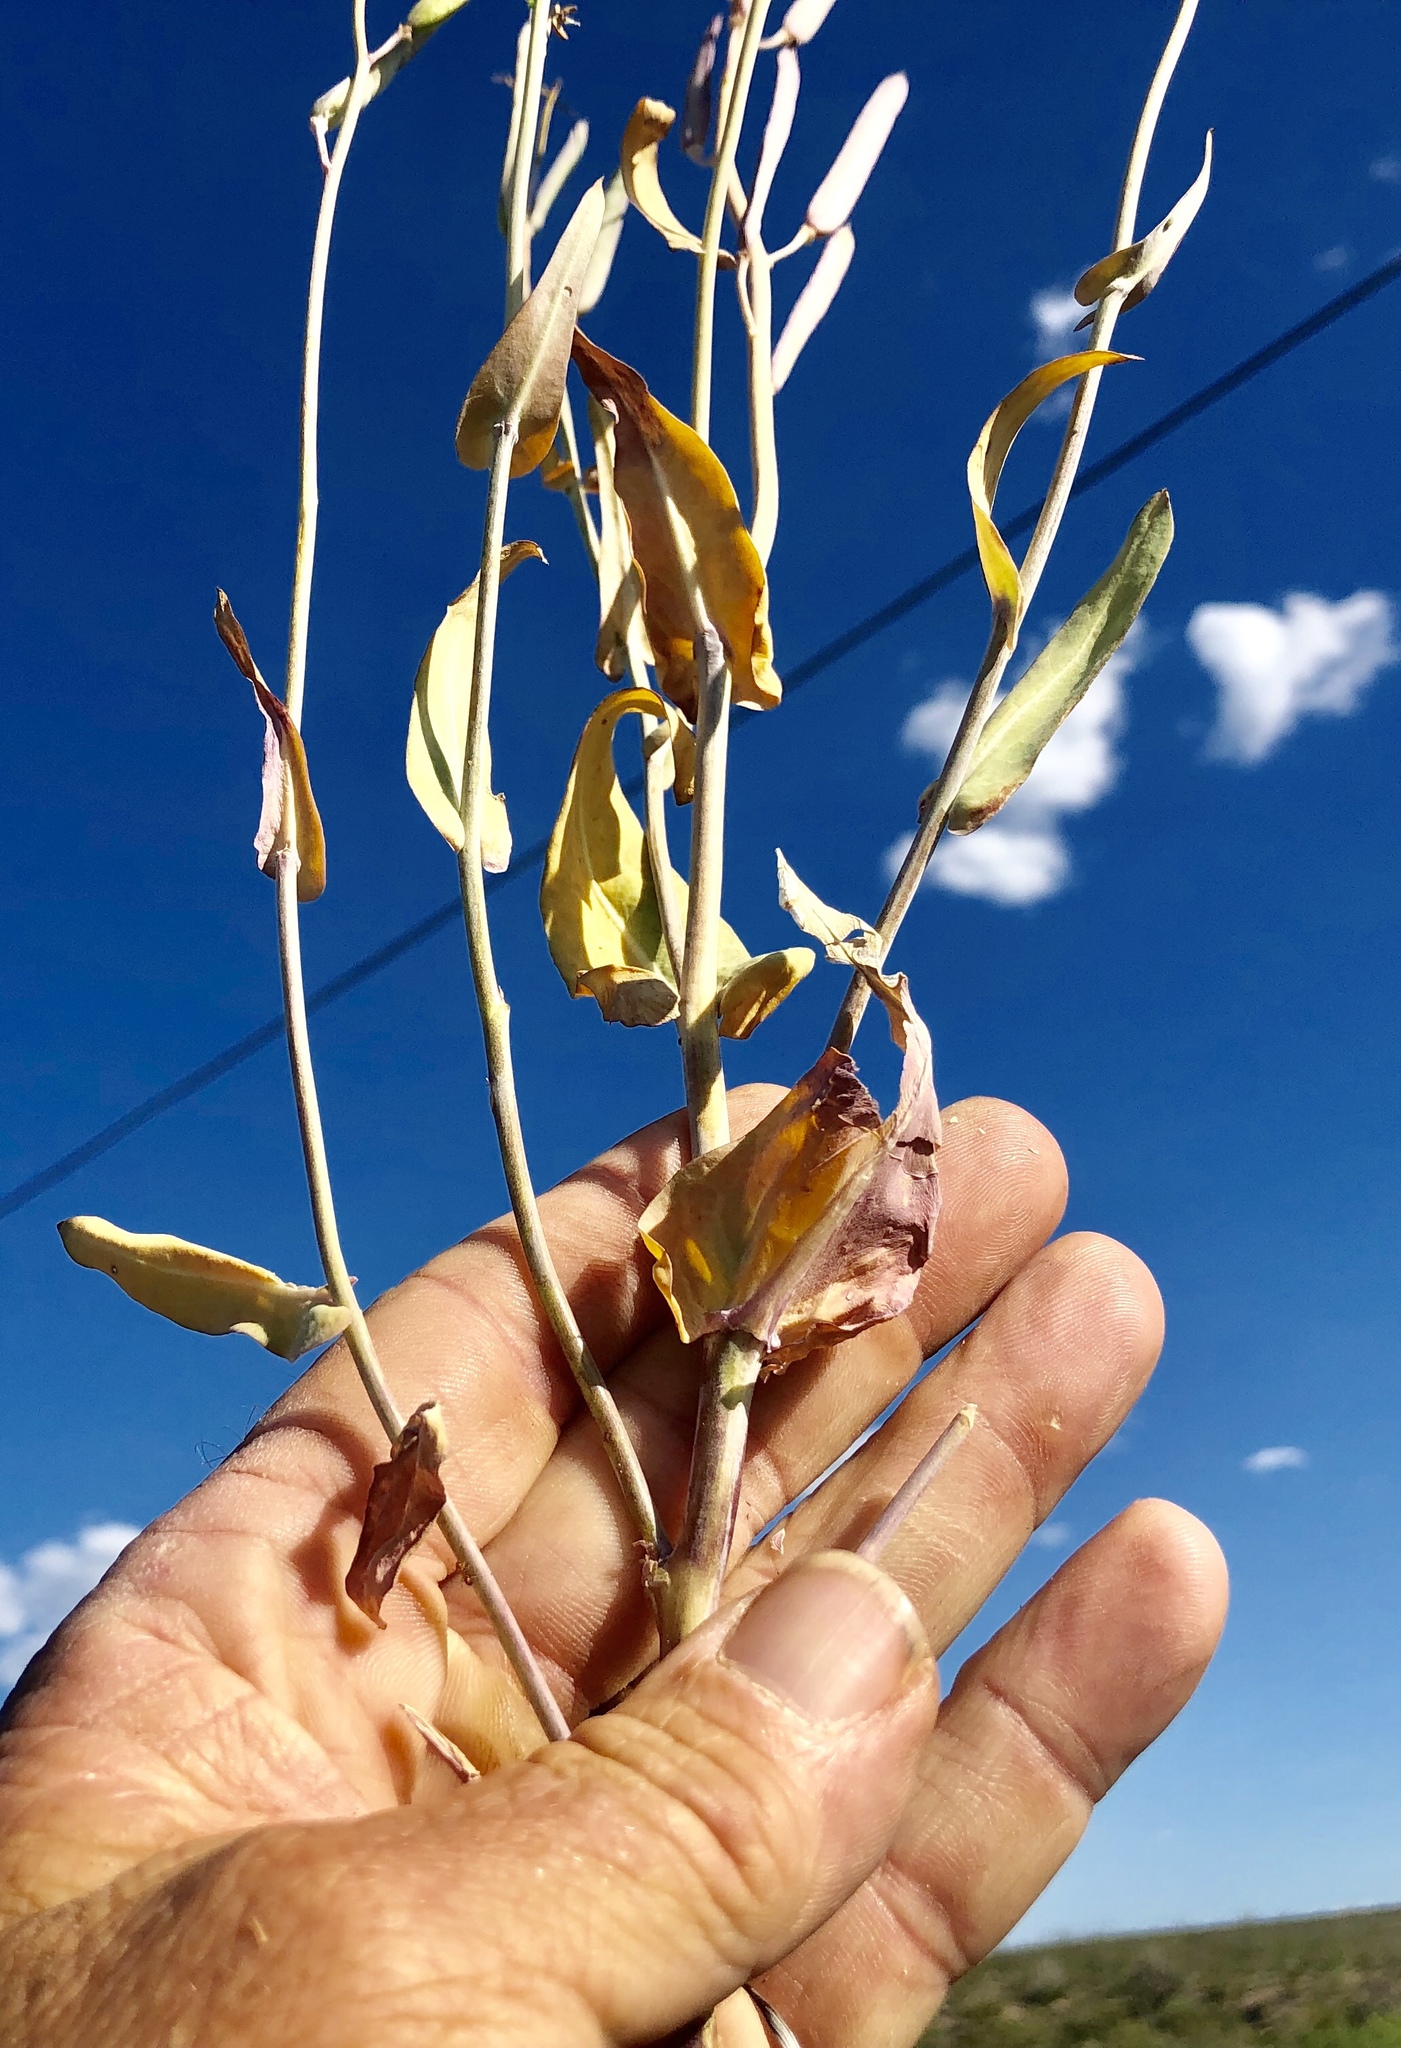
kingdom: Plantae
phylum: Tracheophyta
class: Magnoliopsida
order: Brassicales
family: Brassicaceae
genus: Streptanthus
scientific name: Streptanthus carinatus
